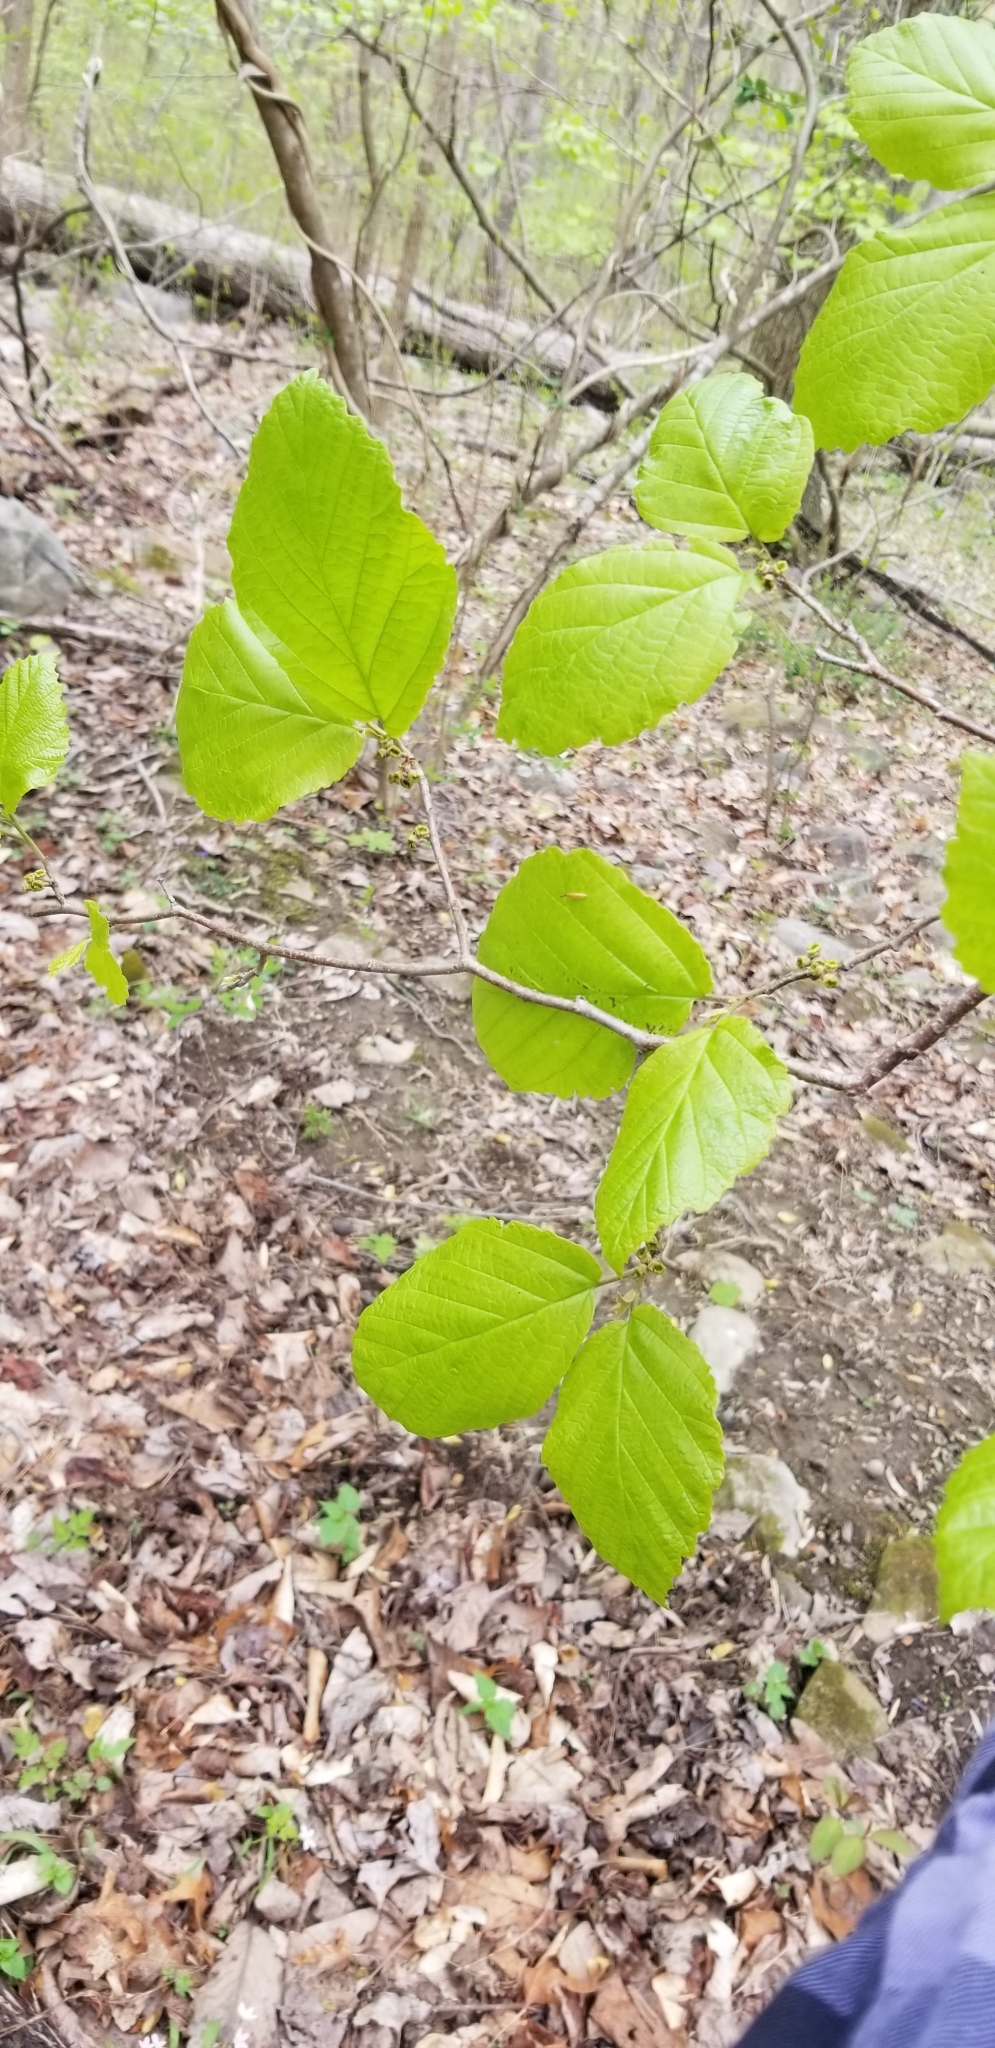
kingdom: Plantae
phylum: Tracheophyta
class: Magnoliopsida
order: Saxifragales
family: Hamamelidaceae
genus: Hamamelis
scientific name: Hamamelis virginiana
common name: Witch-hazel
